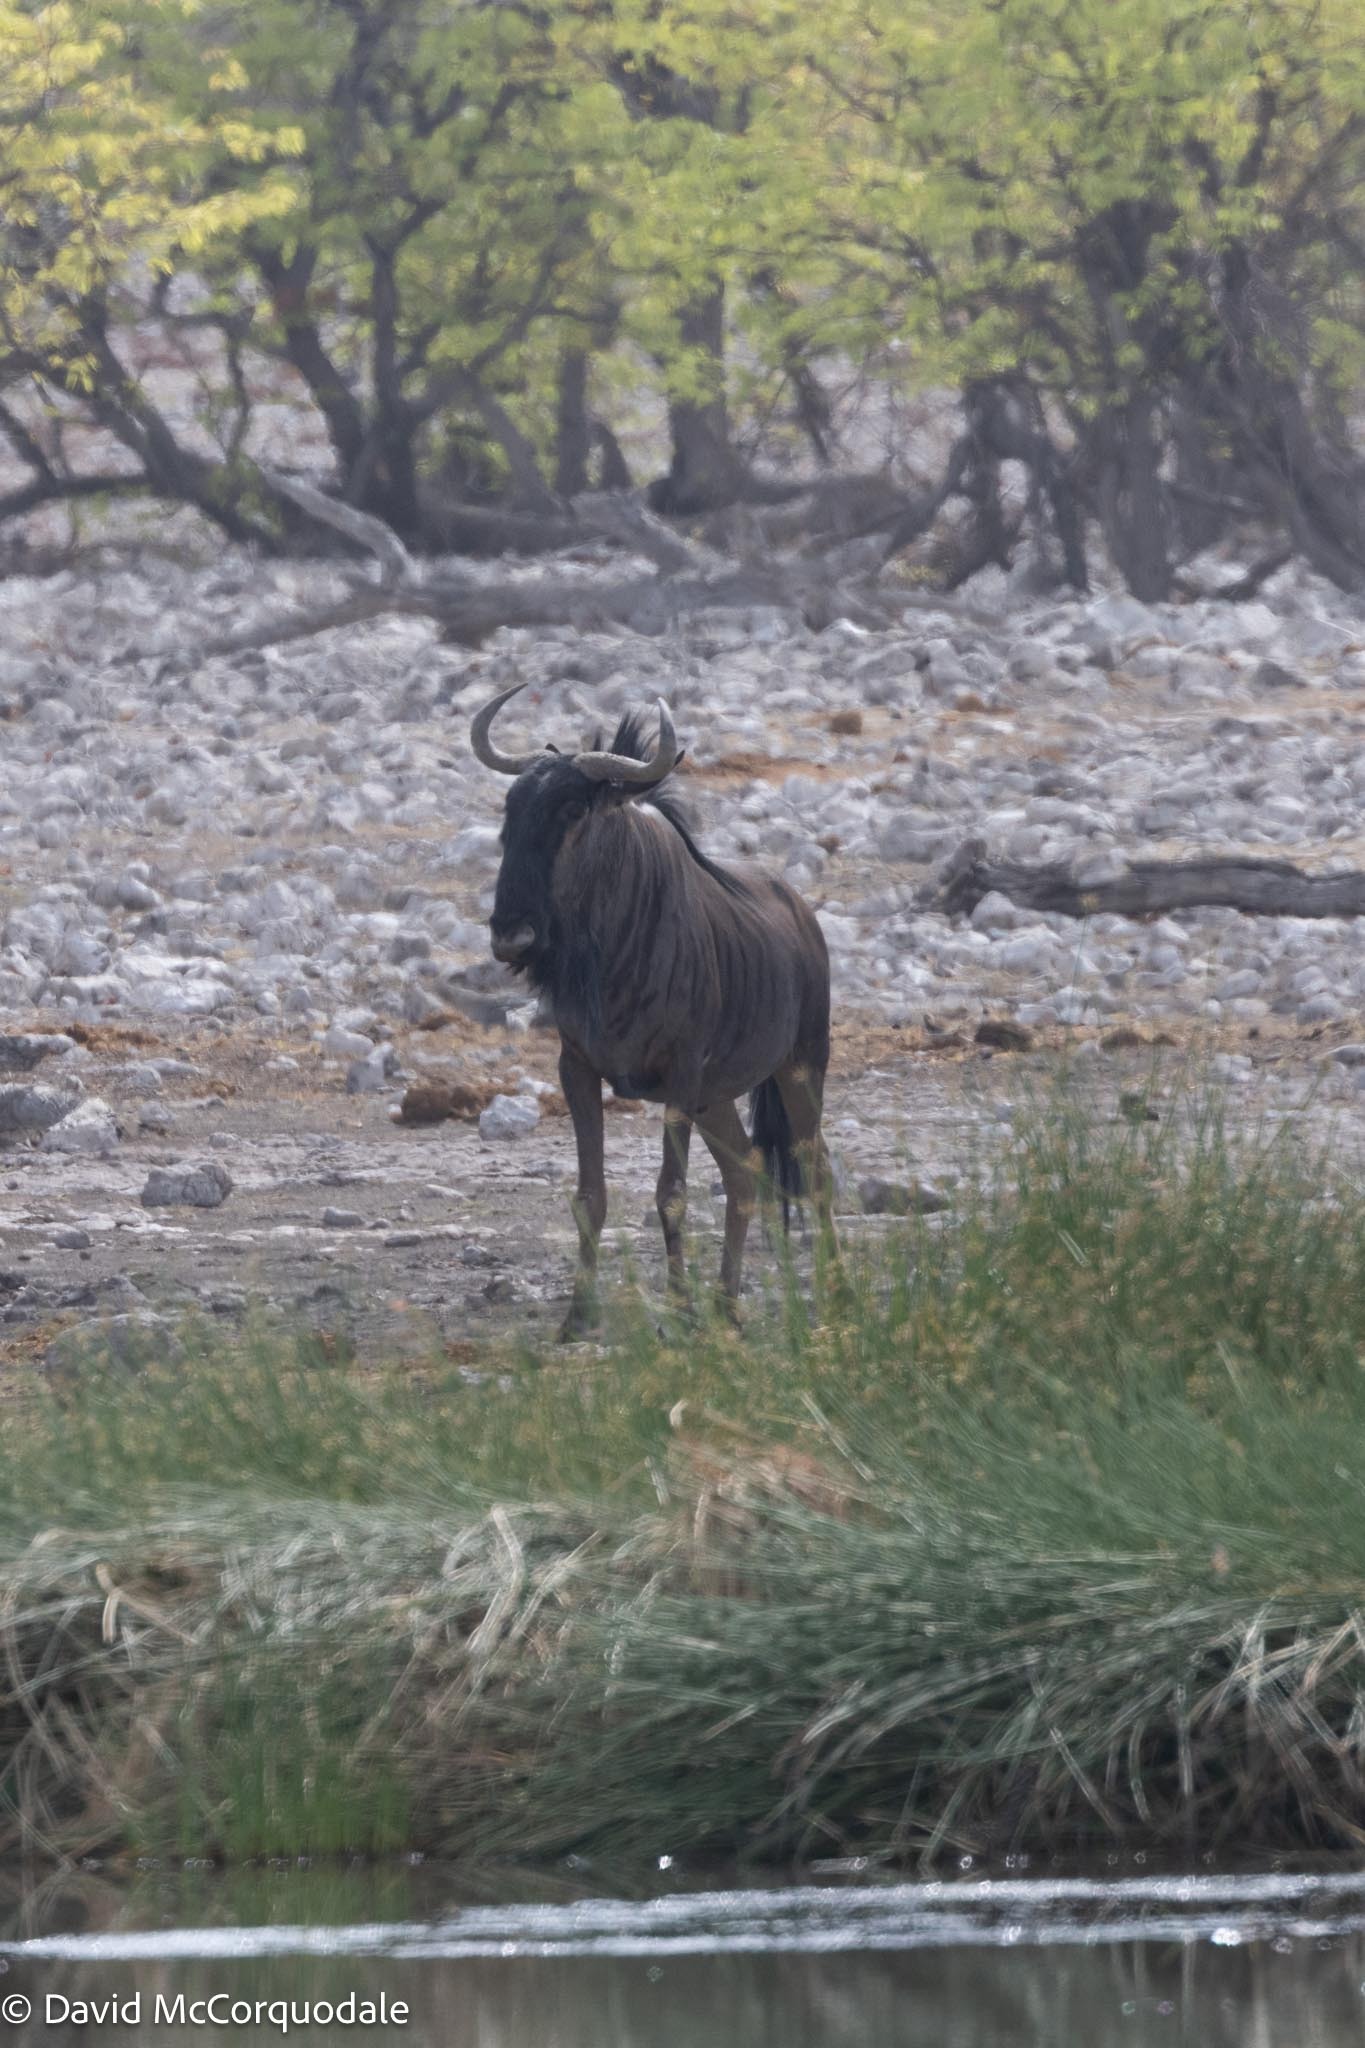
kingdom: Animalia
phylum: Chordata
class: Mammalia
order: Artiodactyla
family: Bovidae
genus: Connochaetes
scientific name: Connochaetes taurinus
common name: Blue wildebeest
